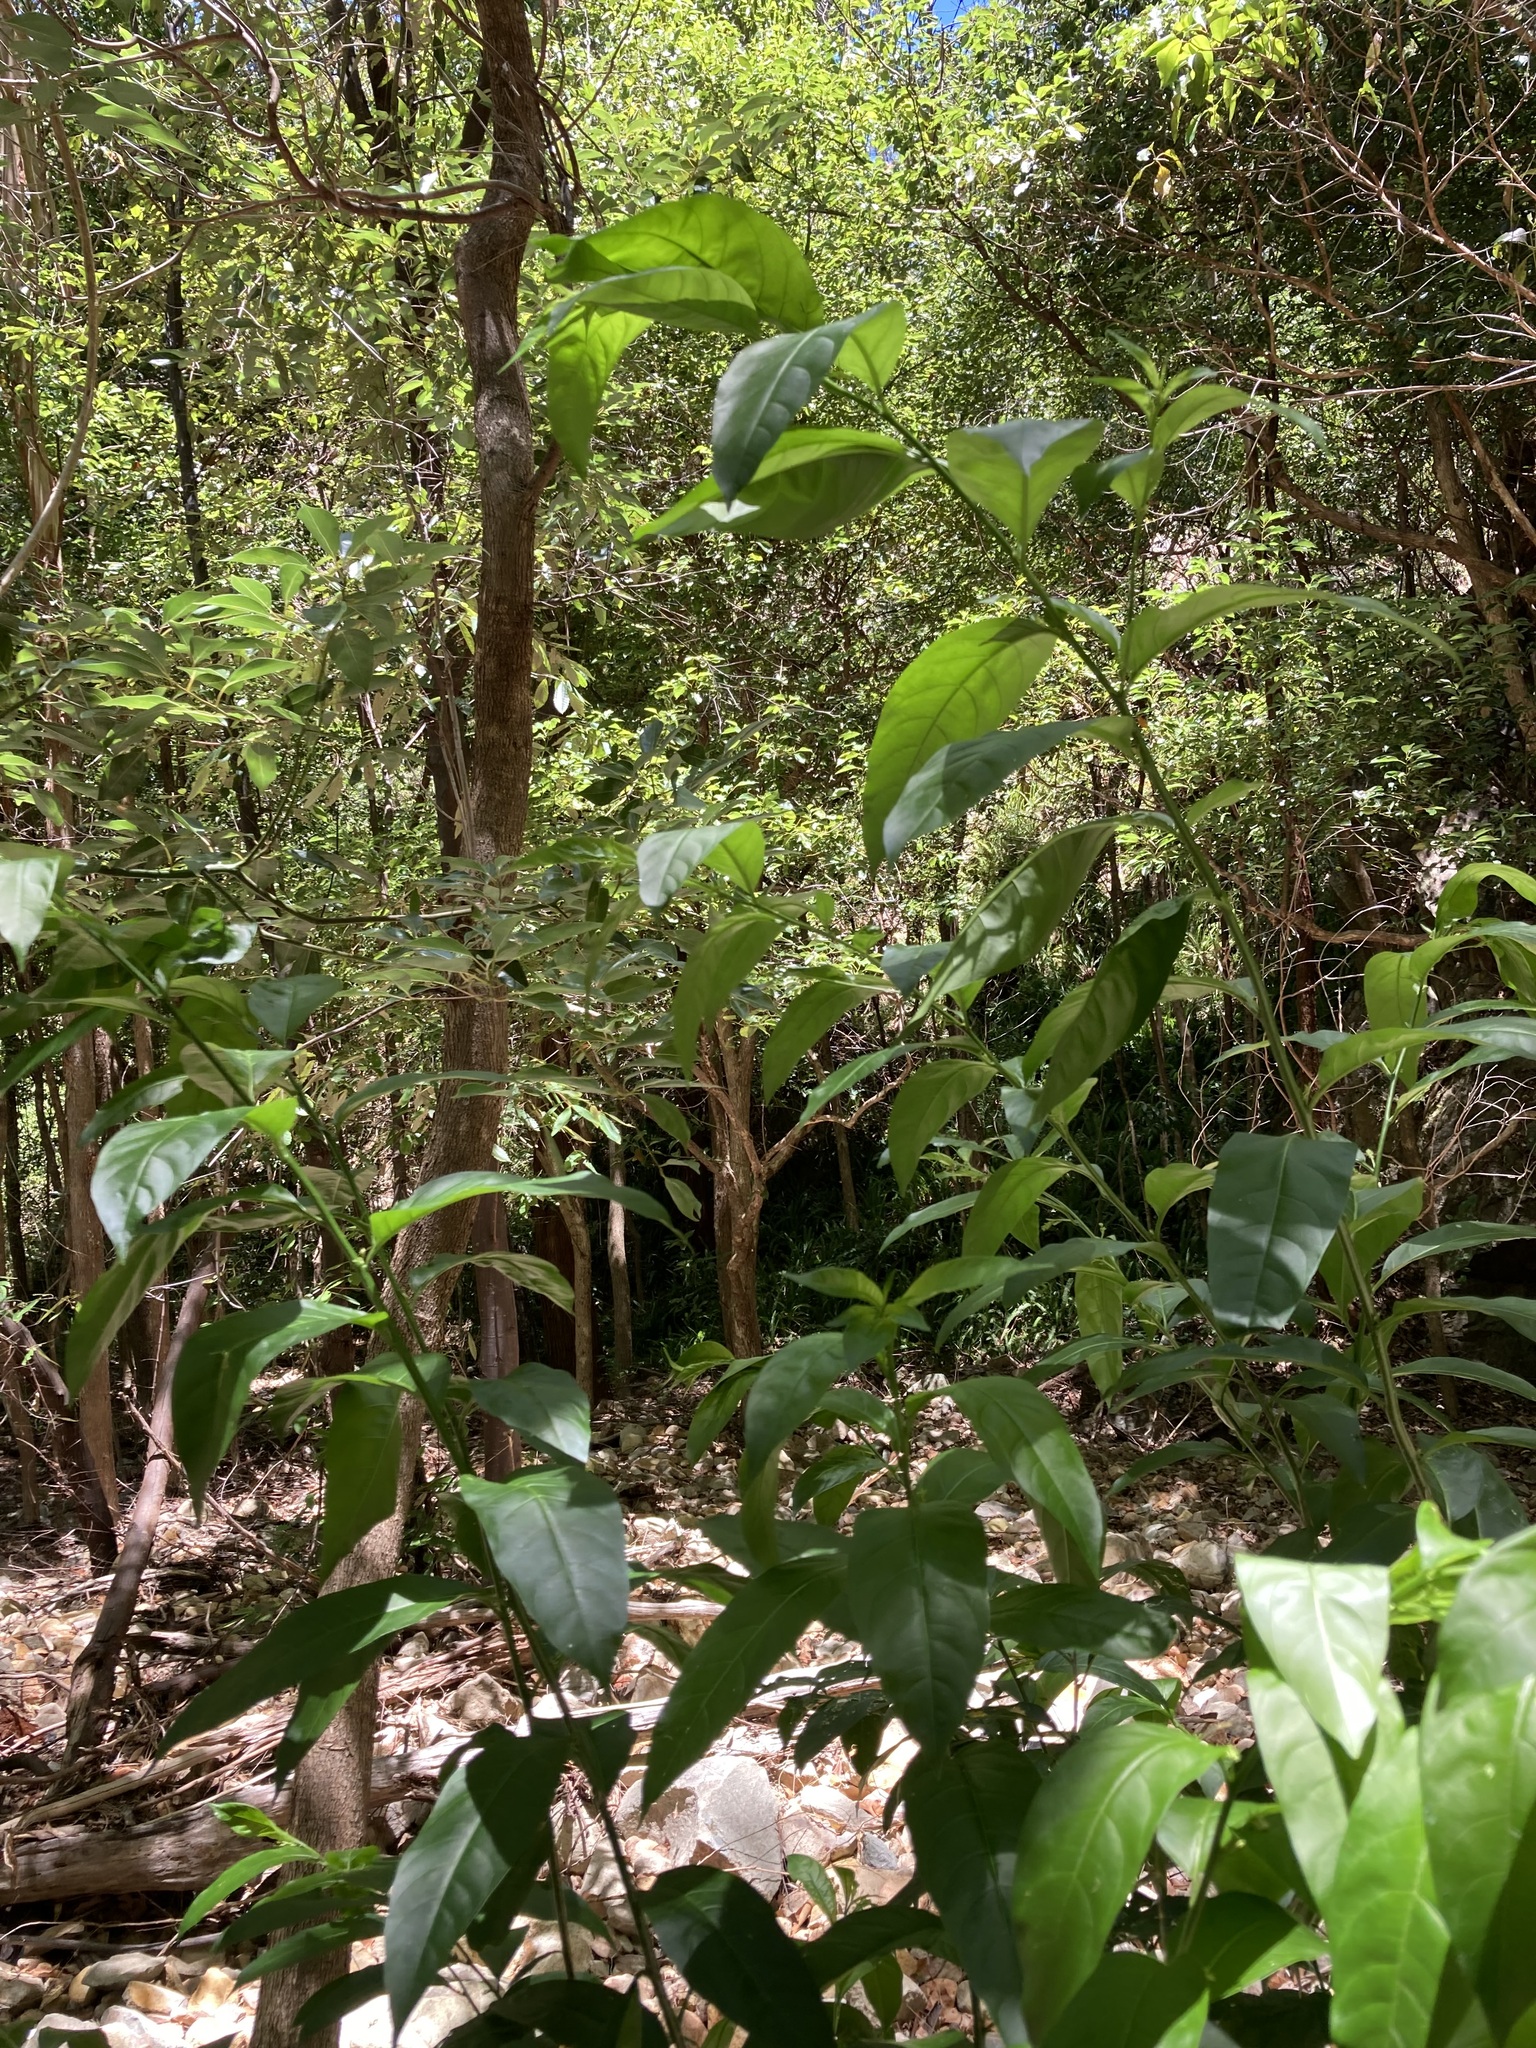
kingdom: Plantae
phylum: Tracheophyta
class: Magnoliopsida
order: Solanales
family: Solanaceae
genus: Cestrum
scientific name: Cestrum nocturnum
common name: Night jessamine
